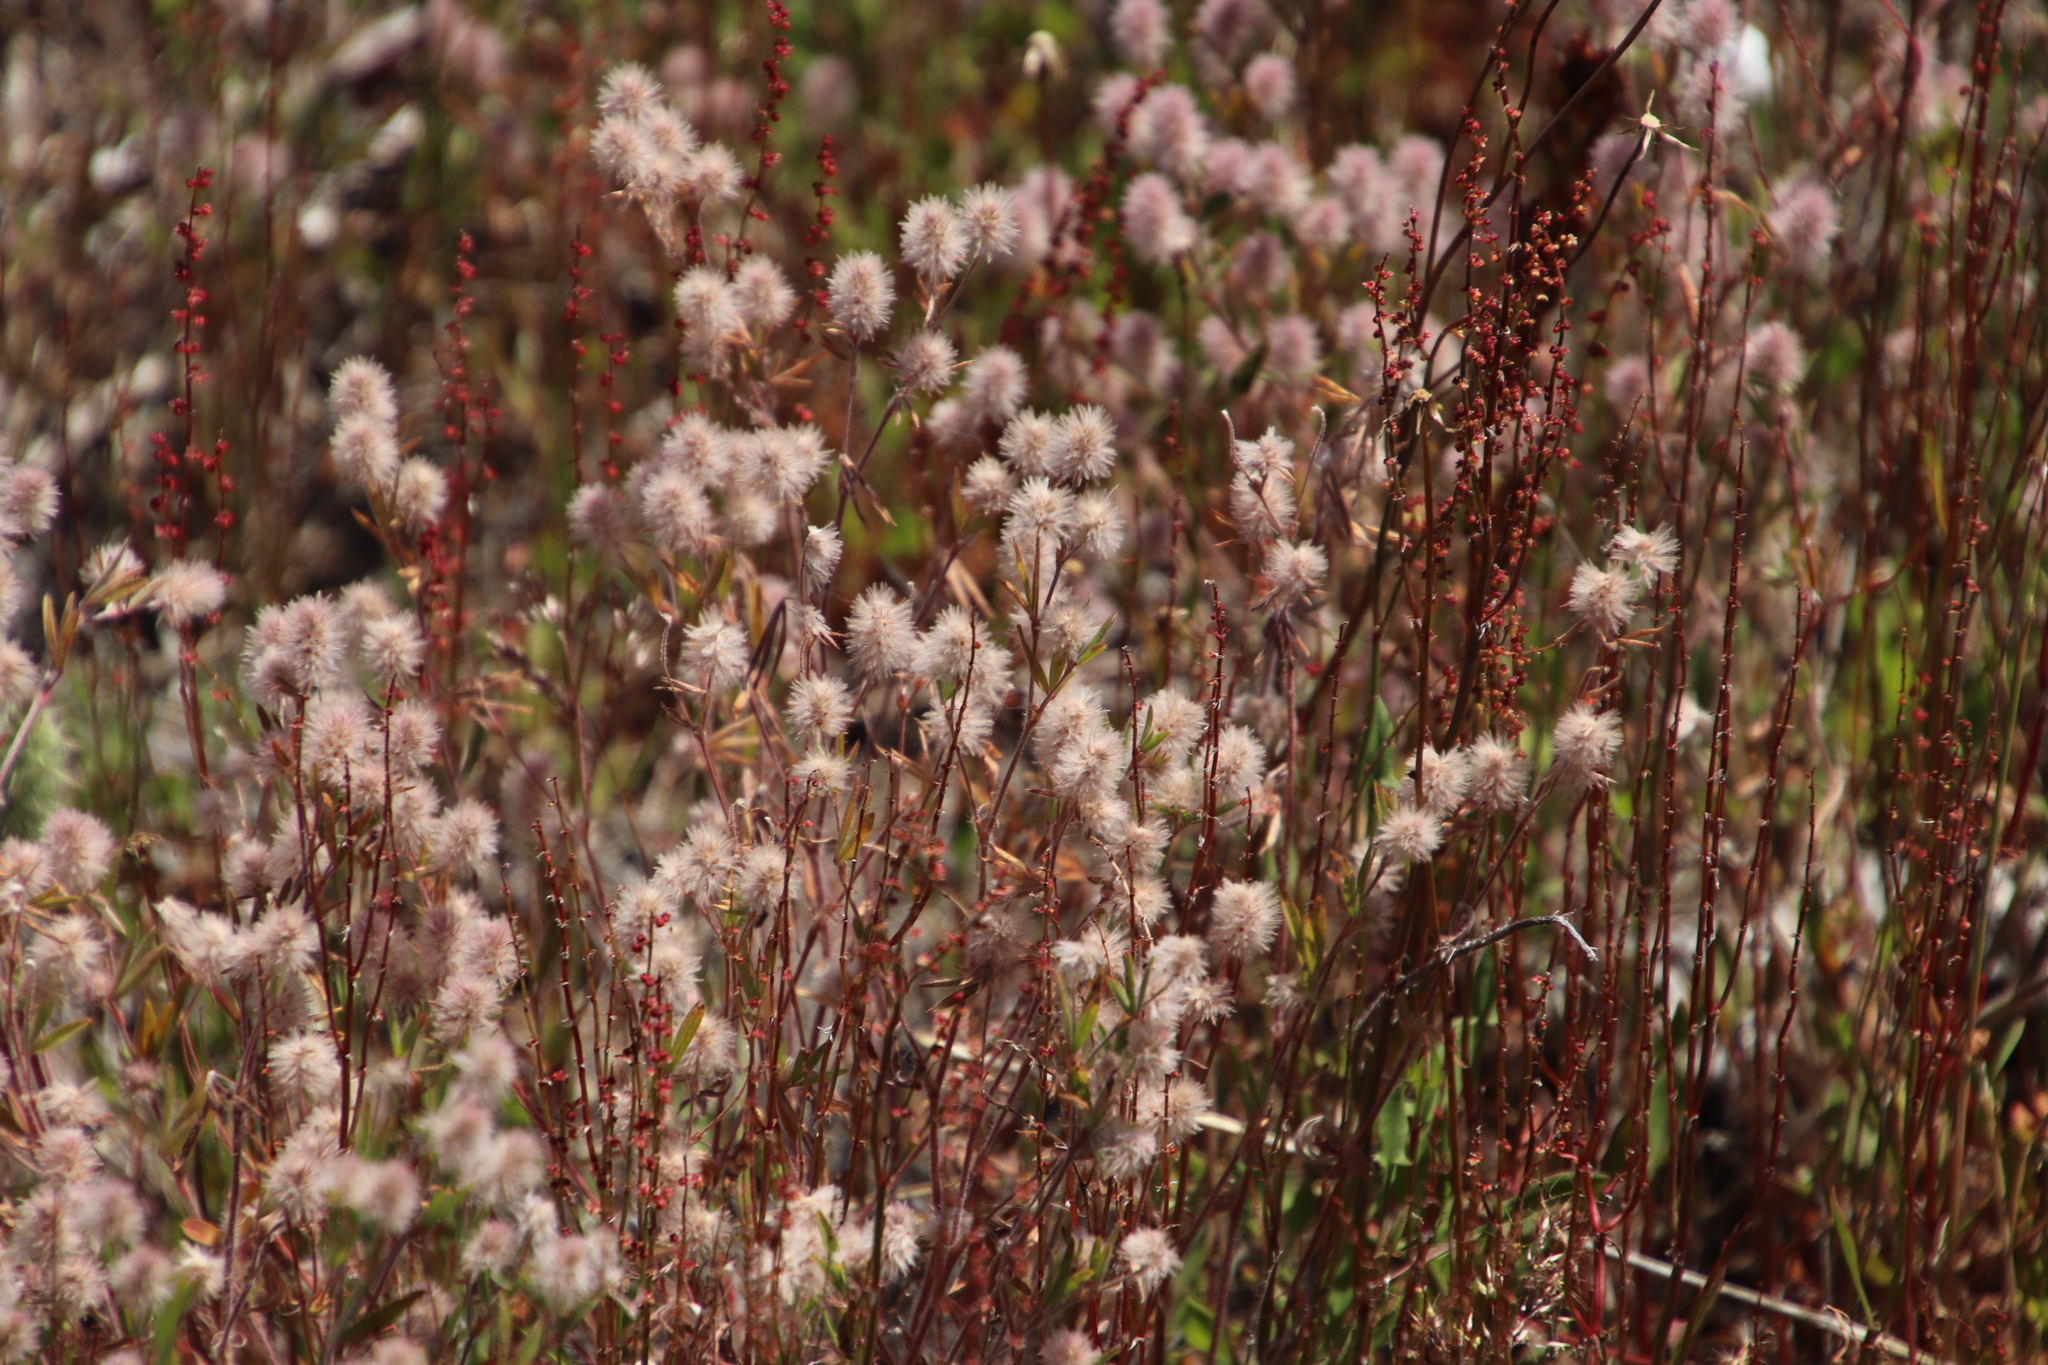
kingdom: Plantae
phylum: Tracheophyta
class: Magnoliopsida
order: Fabales
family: Fabaceae
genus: Trifolium
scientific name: Trifolium arvense
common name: Hare's-foot clover
